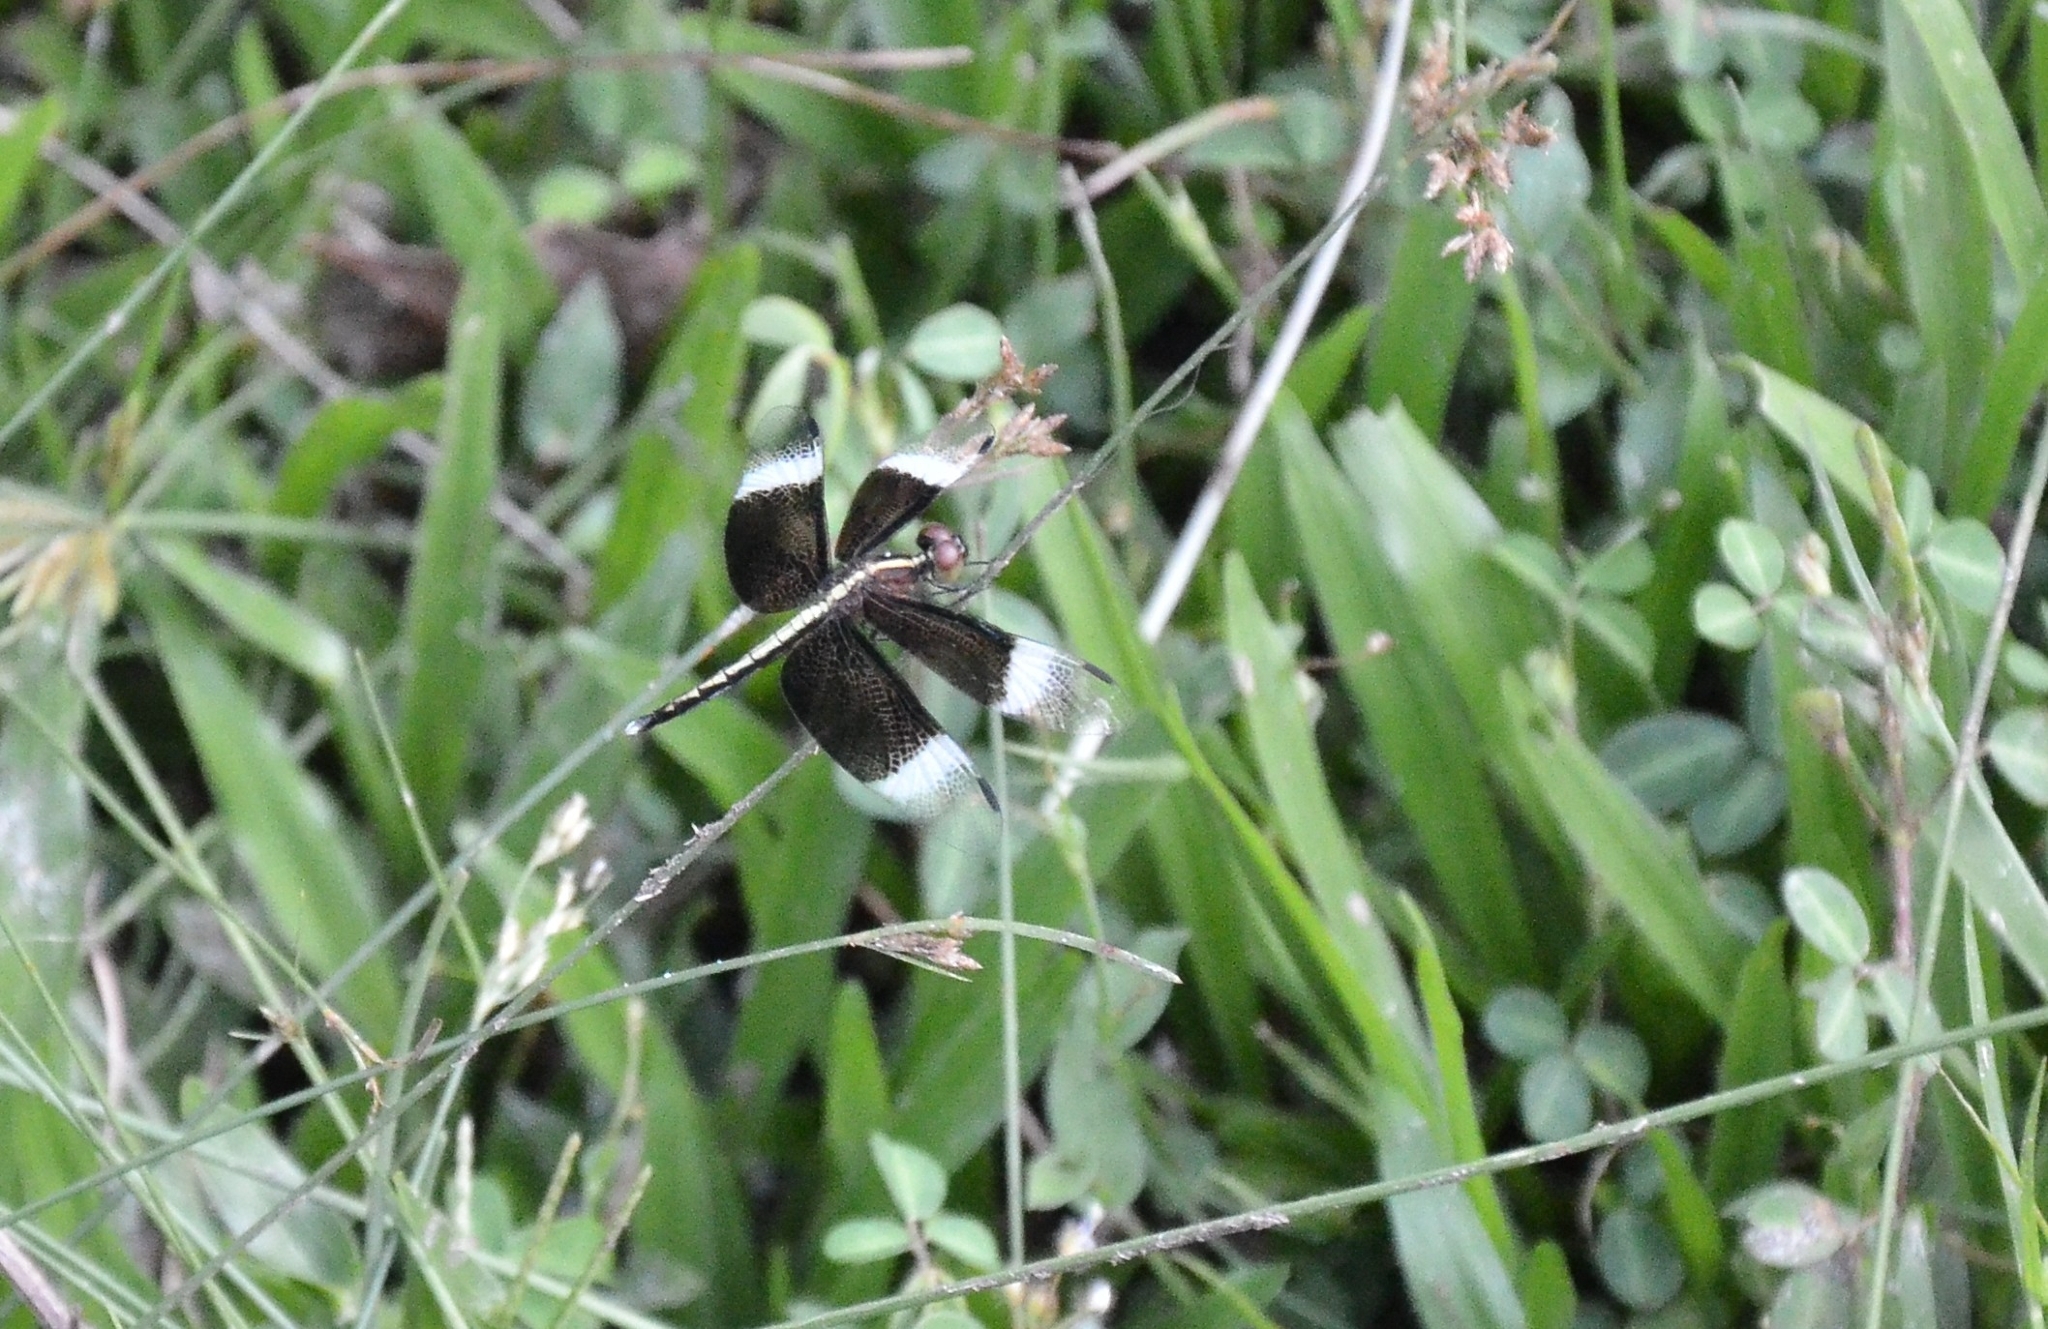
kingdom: Animalia
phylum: Arthropoda
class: Insecta
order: Odonata
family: Libellulidae
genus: Neurothemis
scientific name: Neurothemis tullia
